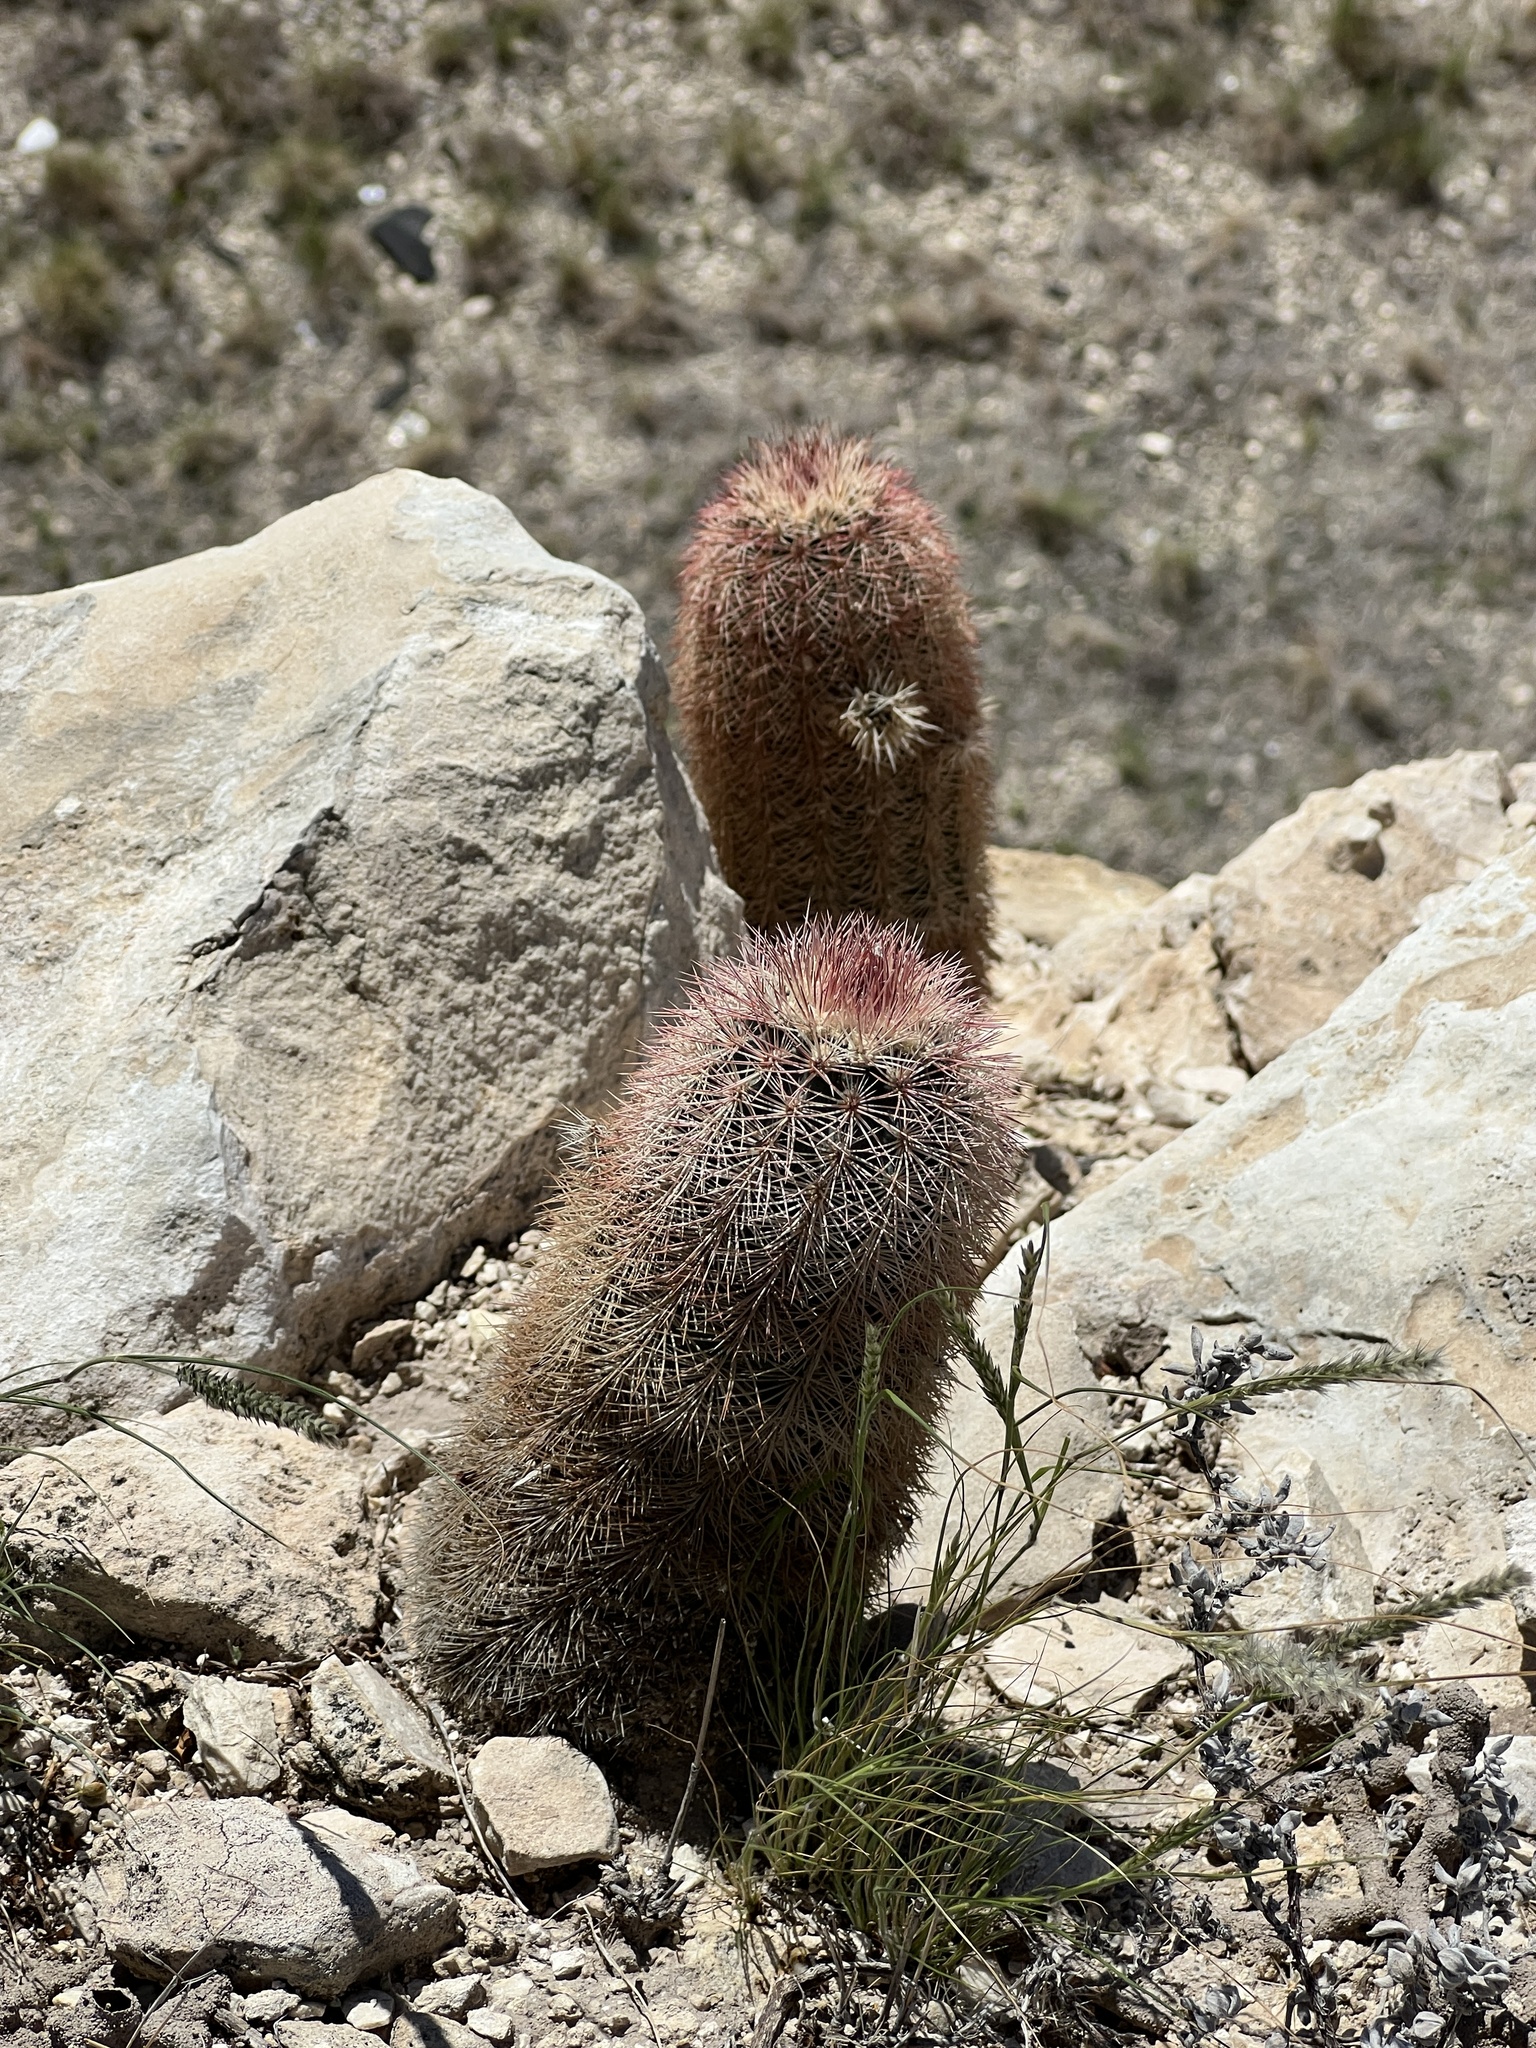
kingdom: Plantae
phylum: Tracheophyta
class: Magnoliopsida
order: Caryophyllales
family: Cactaceae
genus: Echinocereus
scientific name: Echinocereus dasyacanthus
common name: Spiny hedgehog cactus
